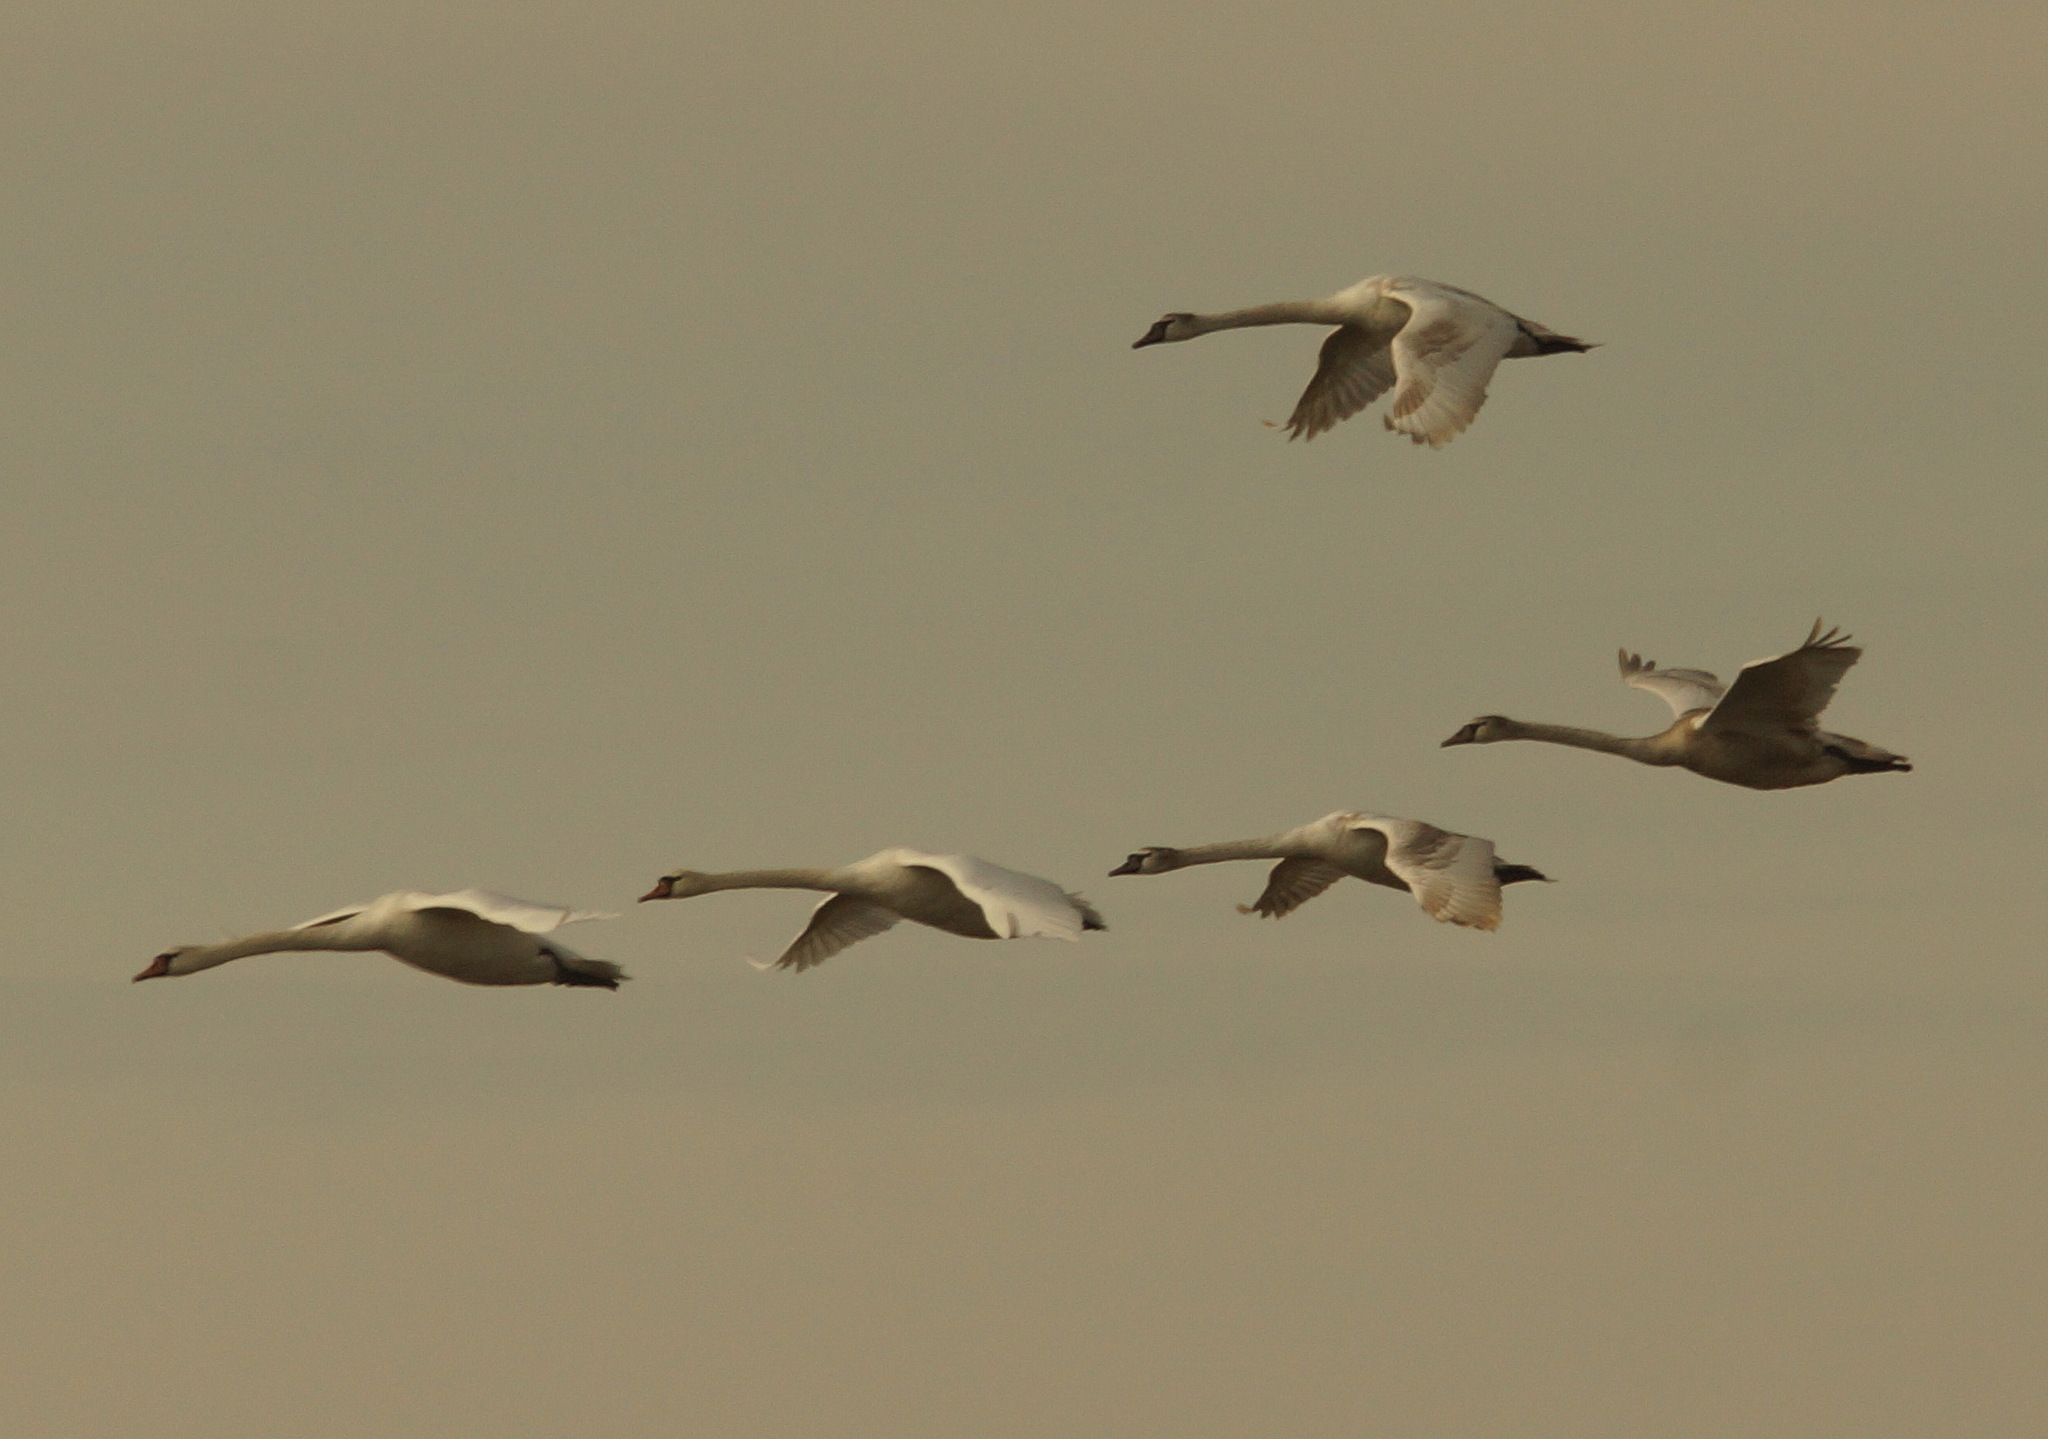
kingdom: Animalia
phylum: Chordata
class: Aves
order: Anseriformes
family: Anatidae
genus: Cygnus
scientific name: Cygnus olor
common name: Mute swan
